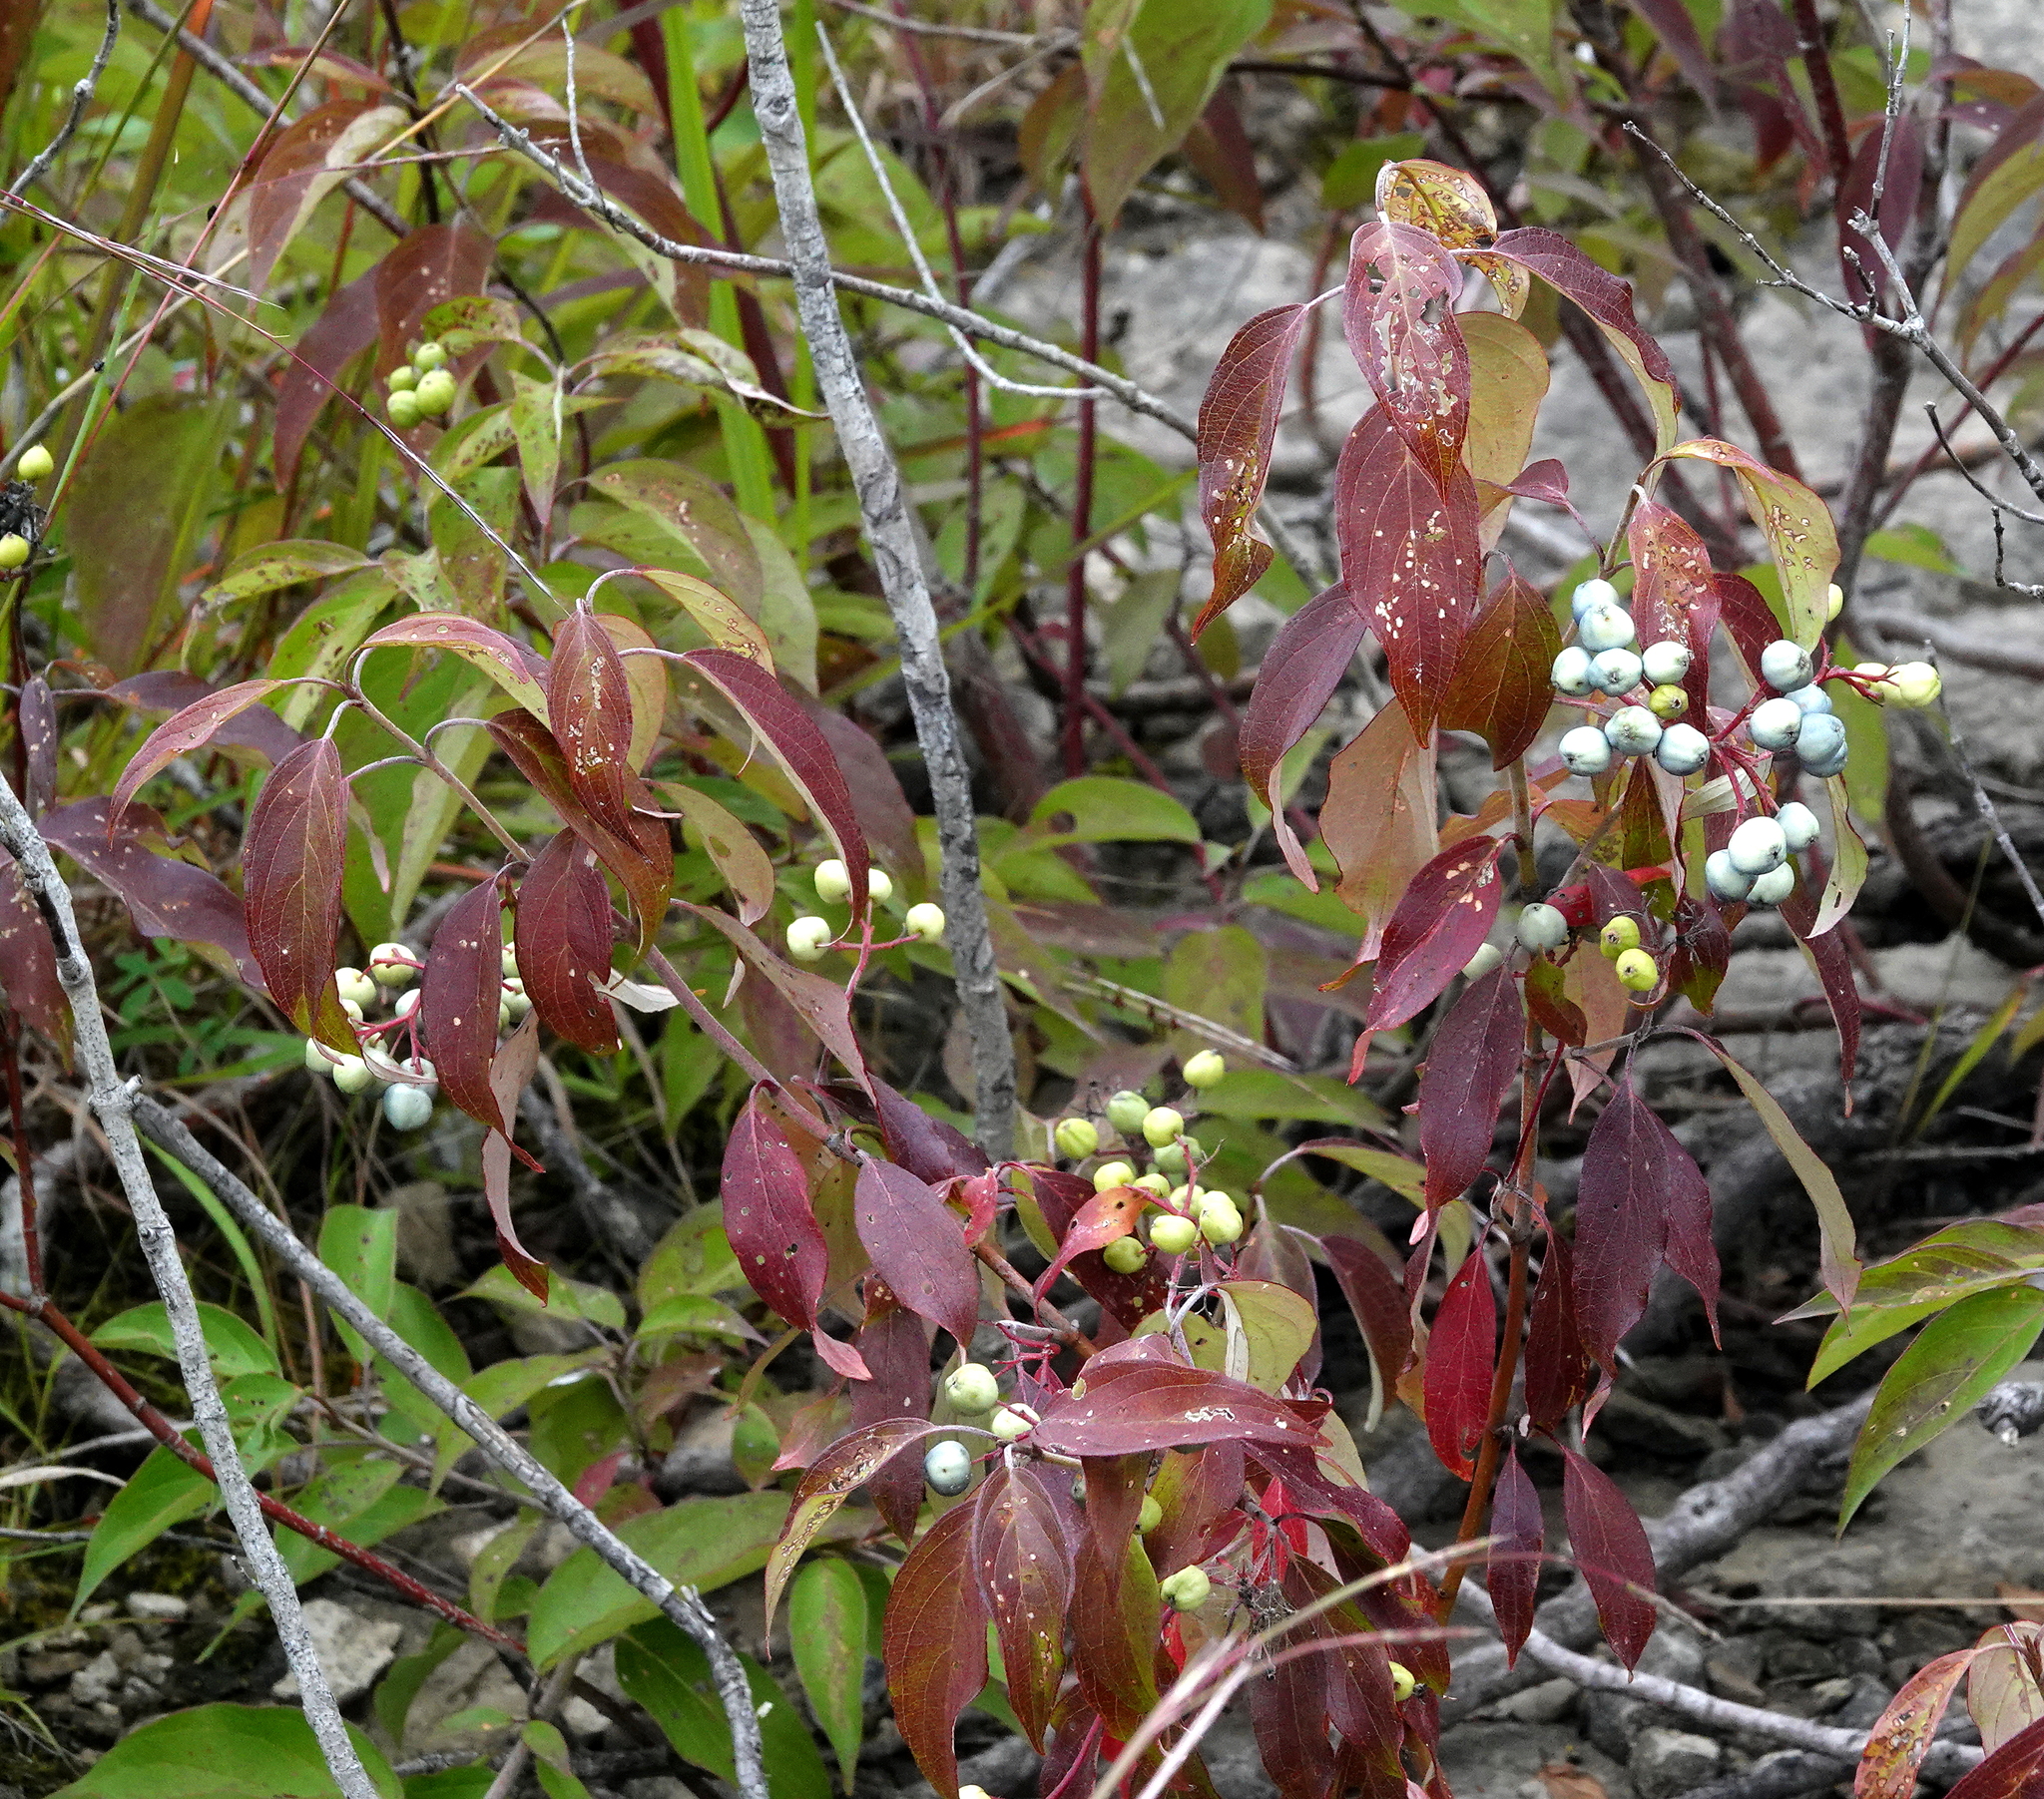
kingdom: Plantae
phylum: Tracheophyta
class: Magnoliopsida
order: Cornales
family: Cornaceae
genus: Cornus
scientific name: Cornus obliqua
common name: Pale dogwood
